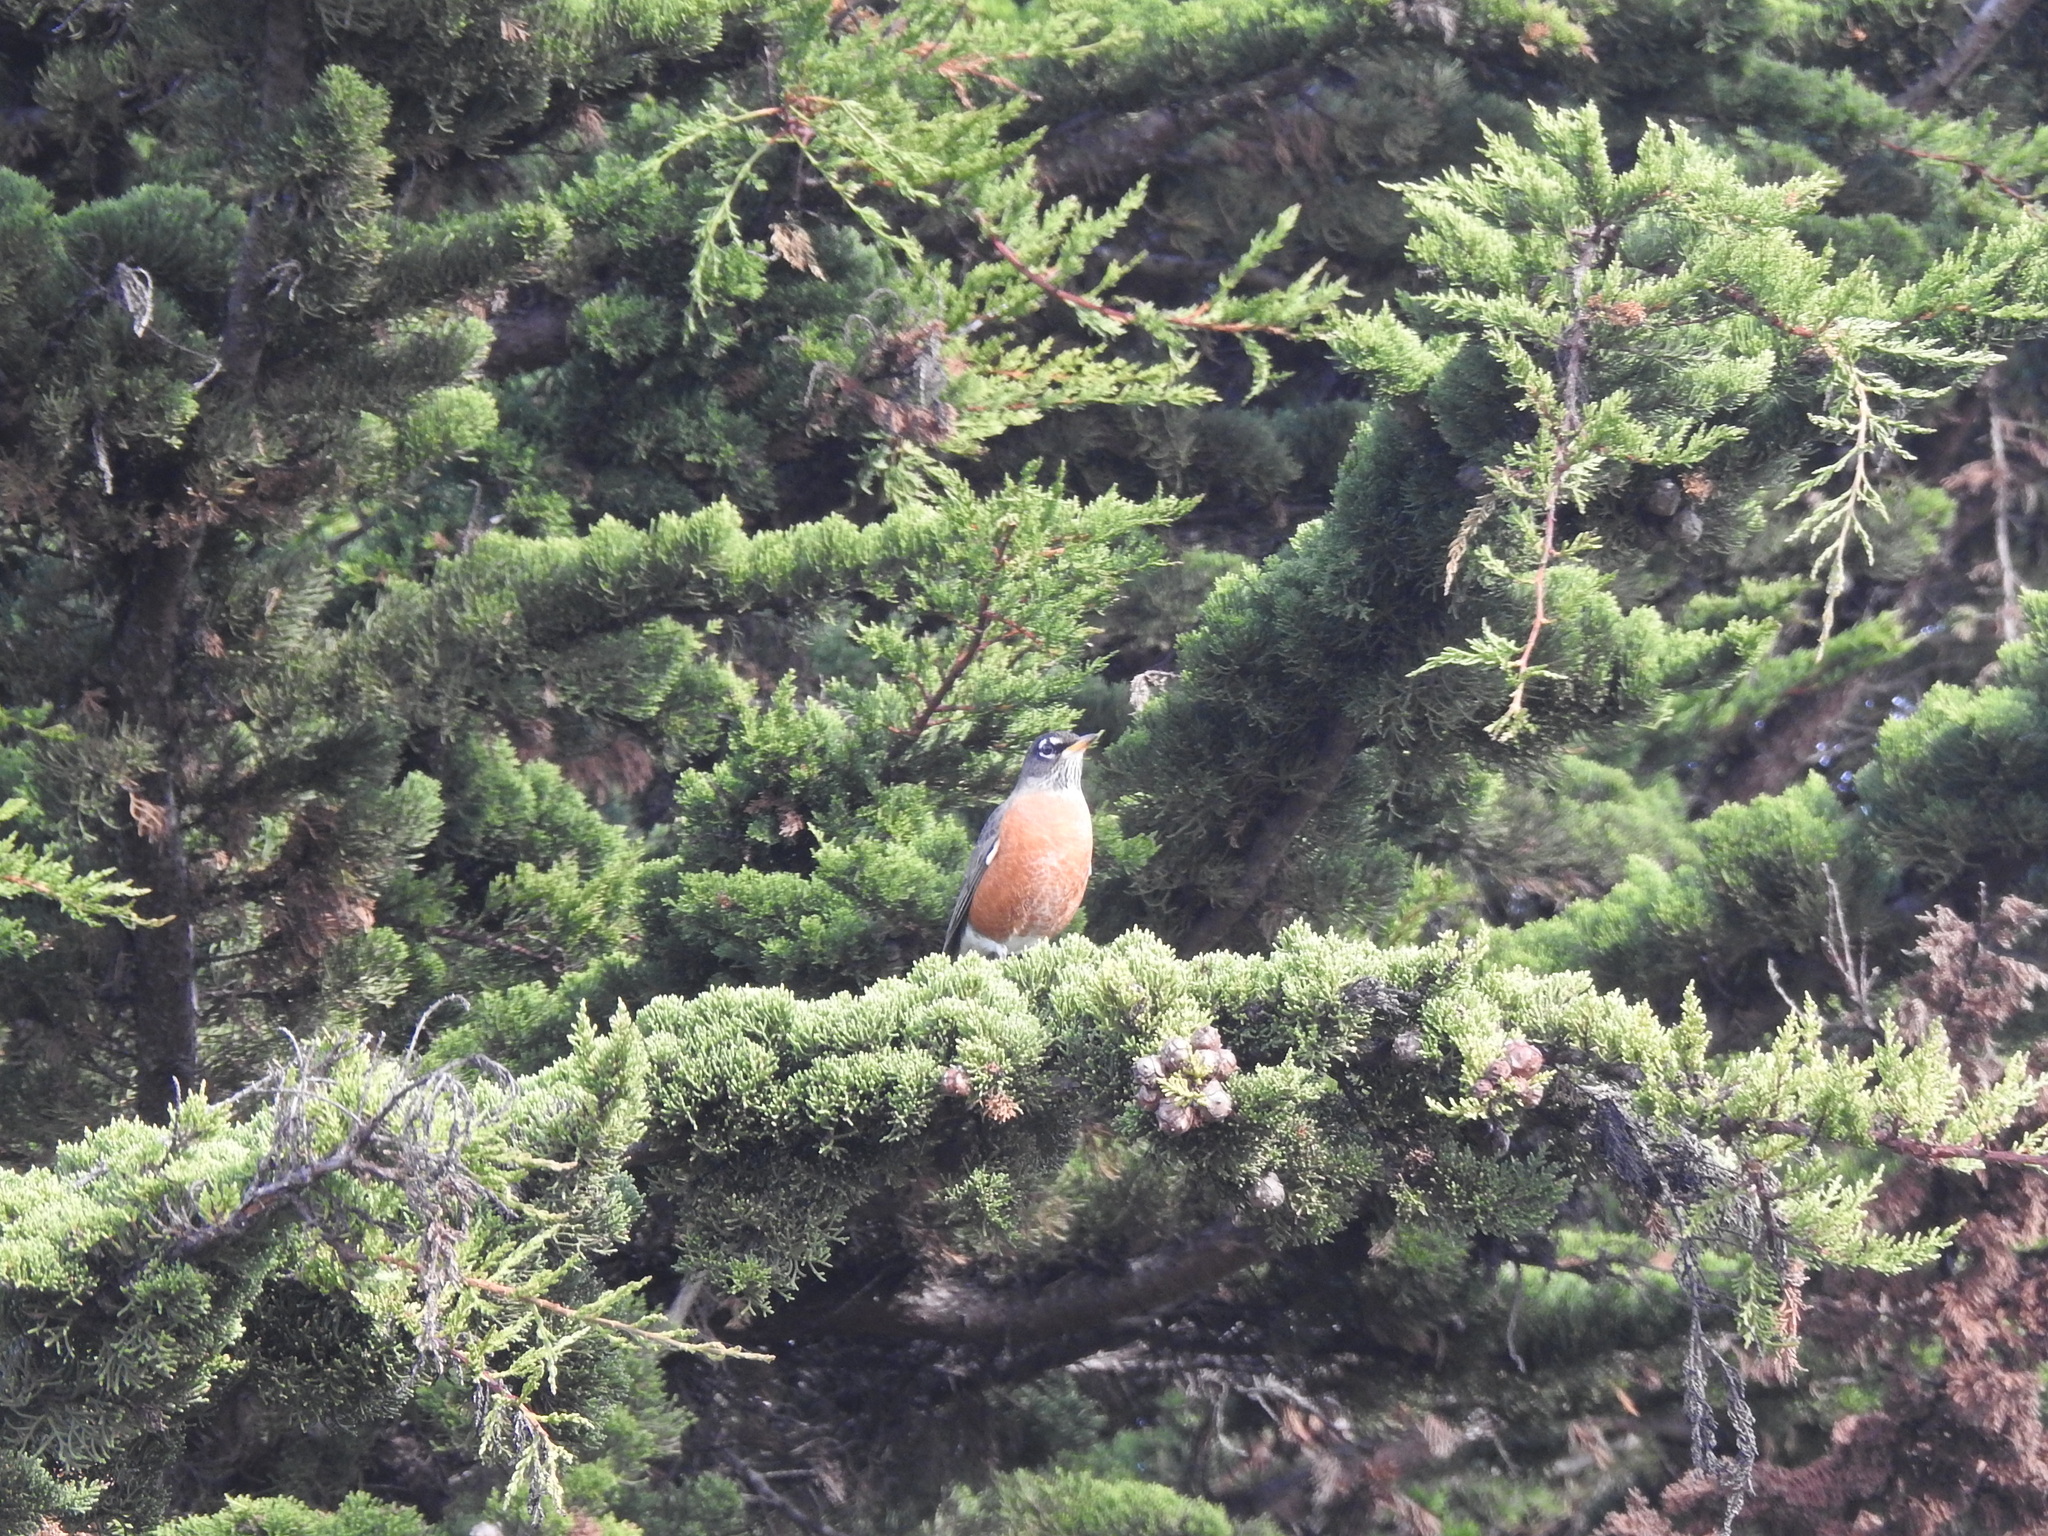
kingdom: Animalia
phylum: Chordata
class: Aves
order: Passeriformes
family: Turdidae
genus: Turdus
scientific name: Turdus migratorius
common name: American robin
